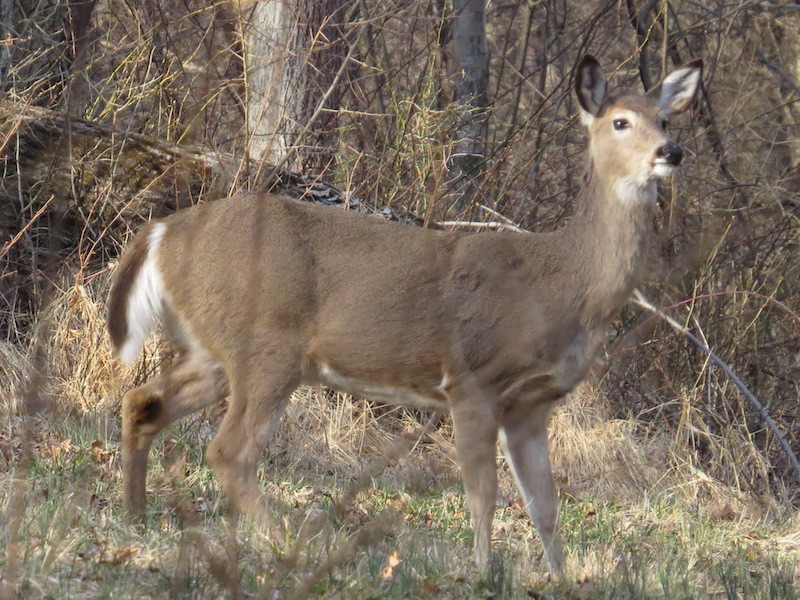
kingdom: Animalia
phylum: Chordata
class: Mammalia
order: Artiodactyla
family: Cervidae
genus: Odocoileus
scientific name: Odocoileus virginianus
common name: White-tailed deer
